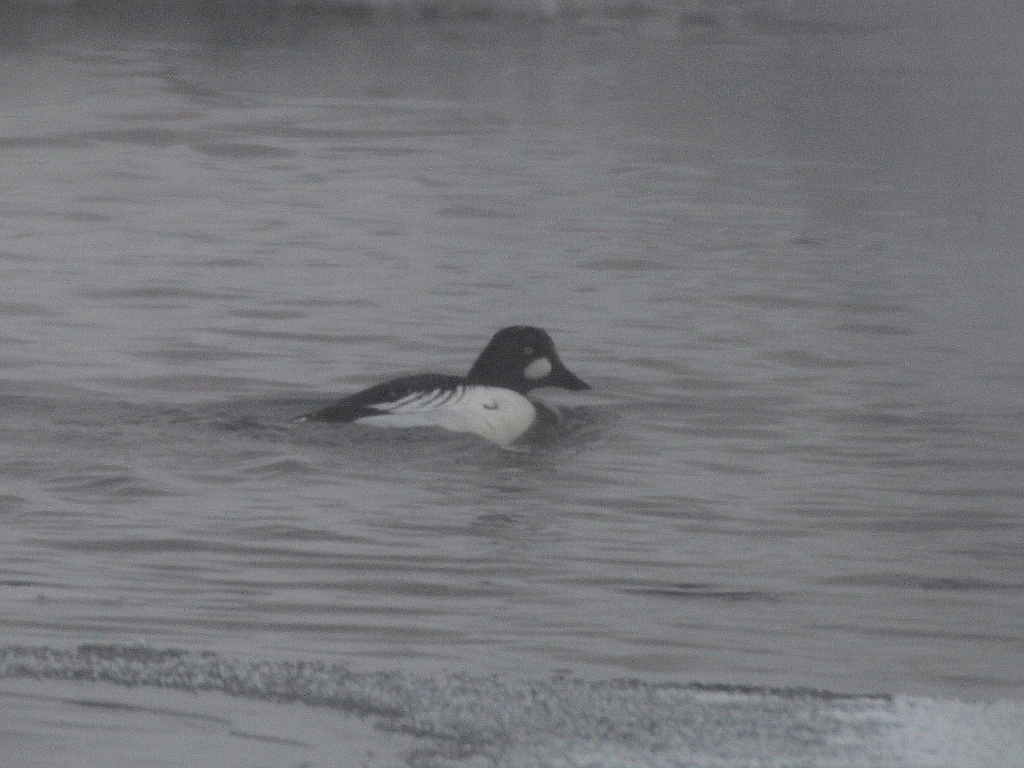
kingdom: Animalia
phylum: Chordata
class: Aves
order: Anseriformes
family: Anatidae
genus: Bucephala
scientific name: Bucephala clangula
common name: Common goldeneye
